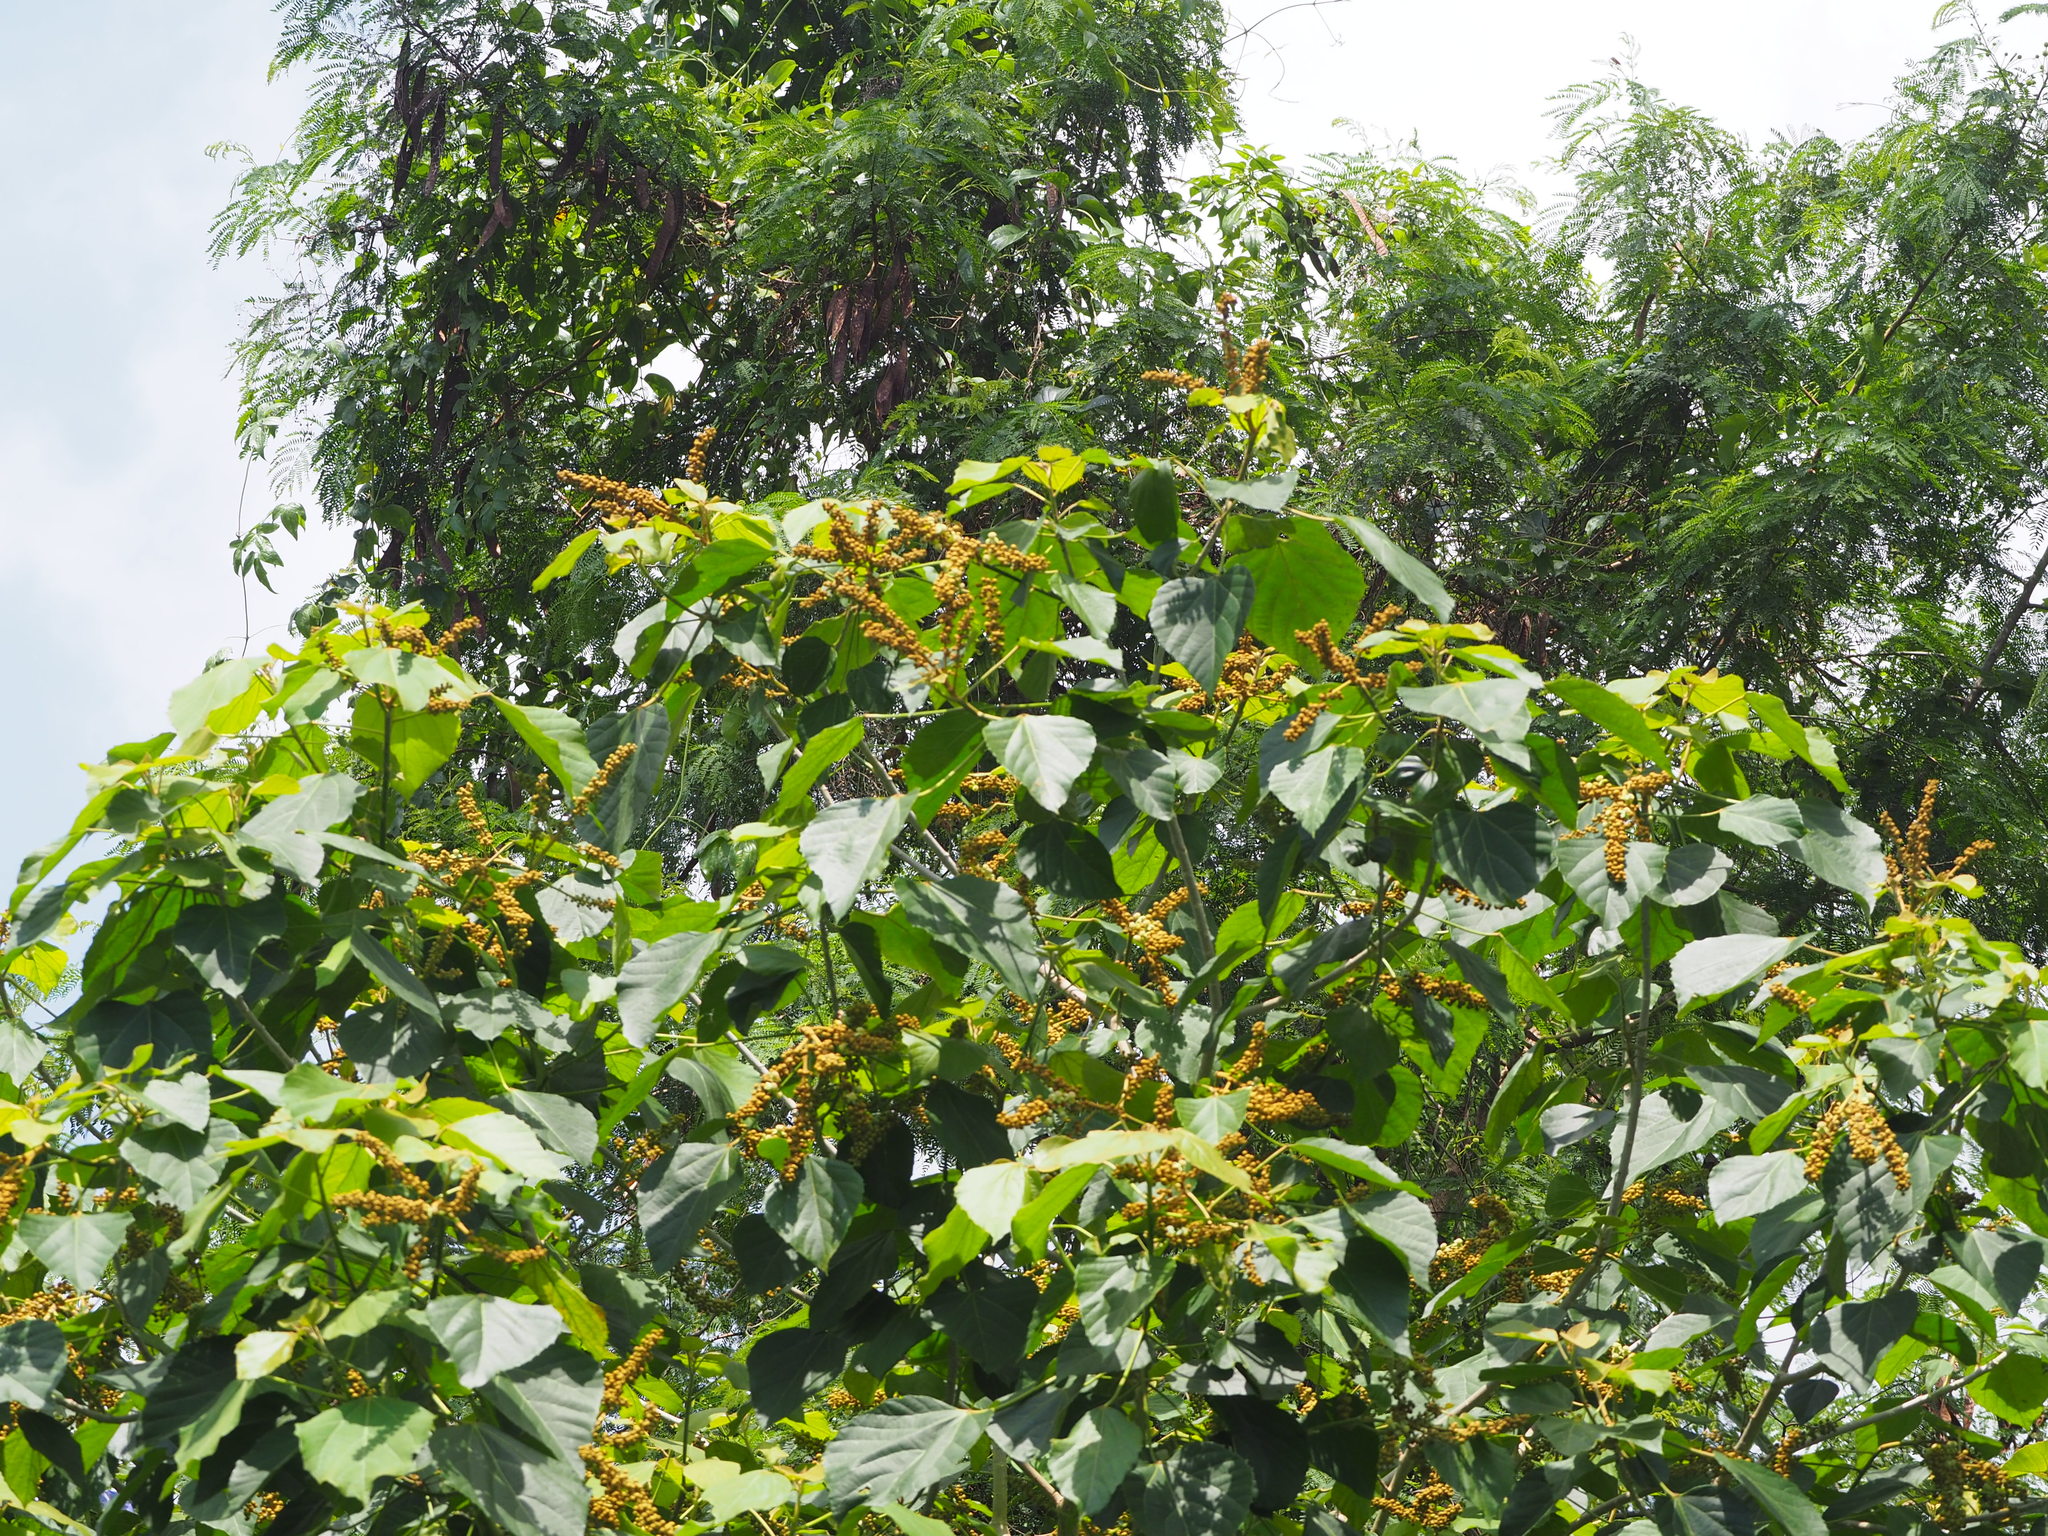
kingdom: Plantae
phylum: Tracheophyta
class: Magnoliopsida
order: Malpighiales
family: Euphorbiaceae
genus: Melanolepis
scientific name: Melanolepis multiglandulosa
